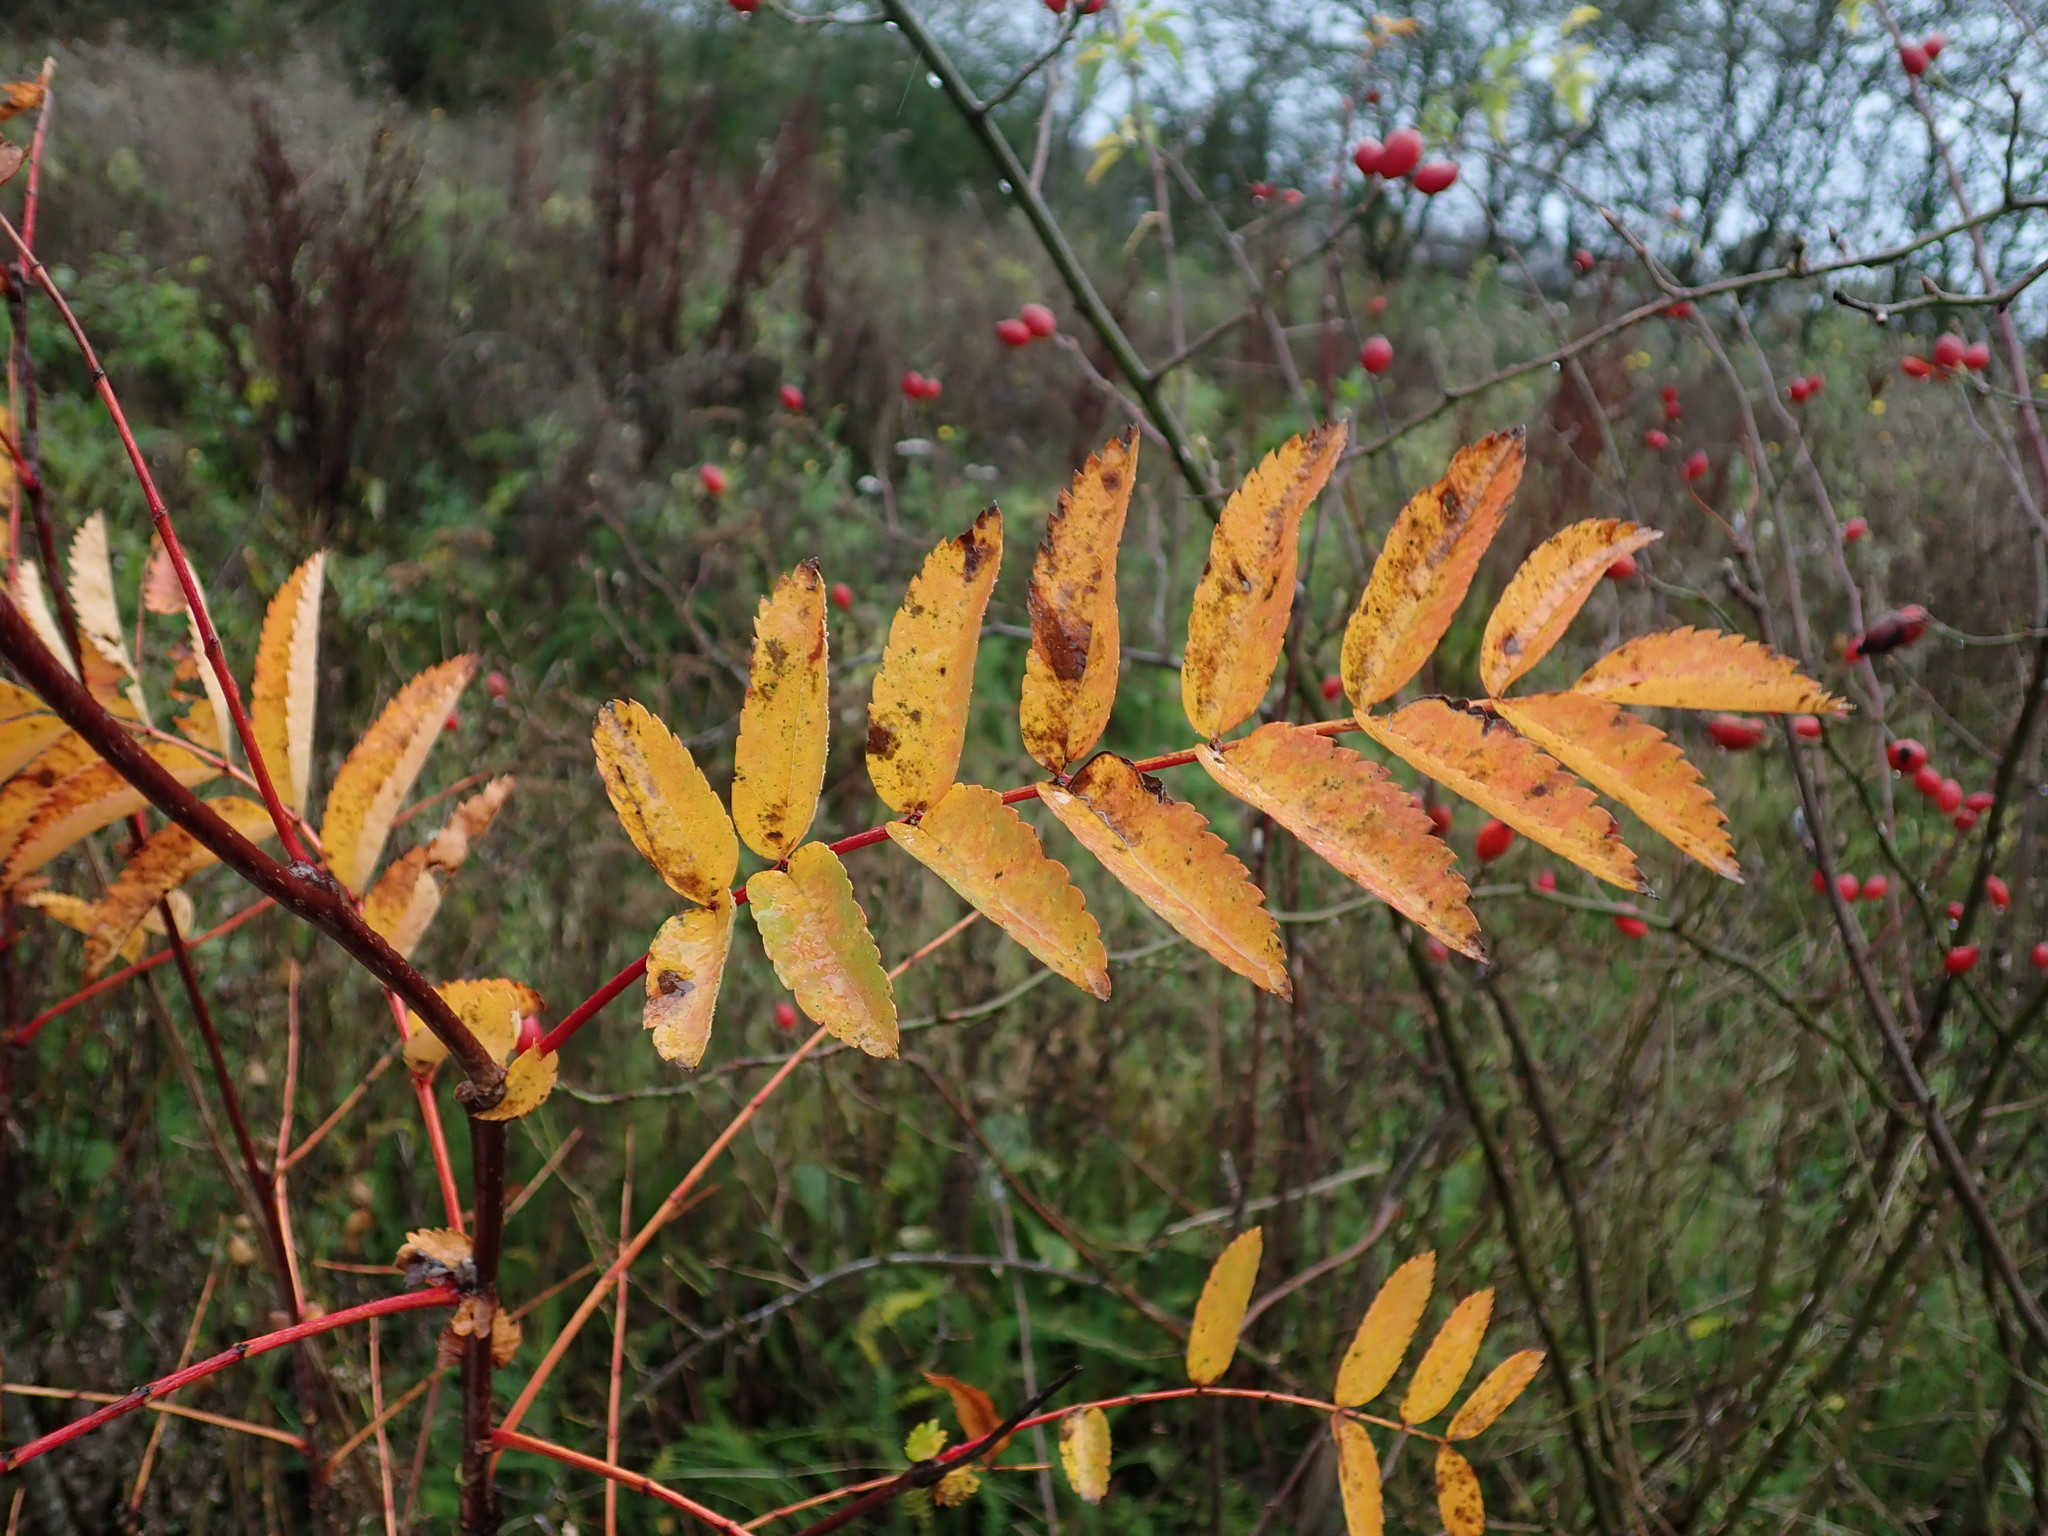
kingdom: Plantae
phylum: Tracheophyta
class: Magnoliopsida
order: Rosales
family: Rosaceae
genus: Sorbus
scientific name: Sorbus aucuparia
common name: Rowan
